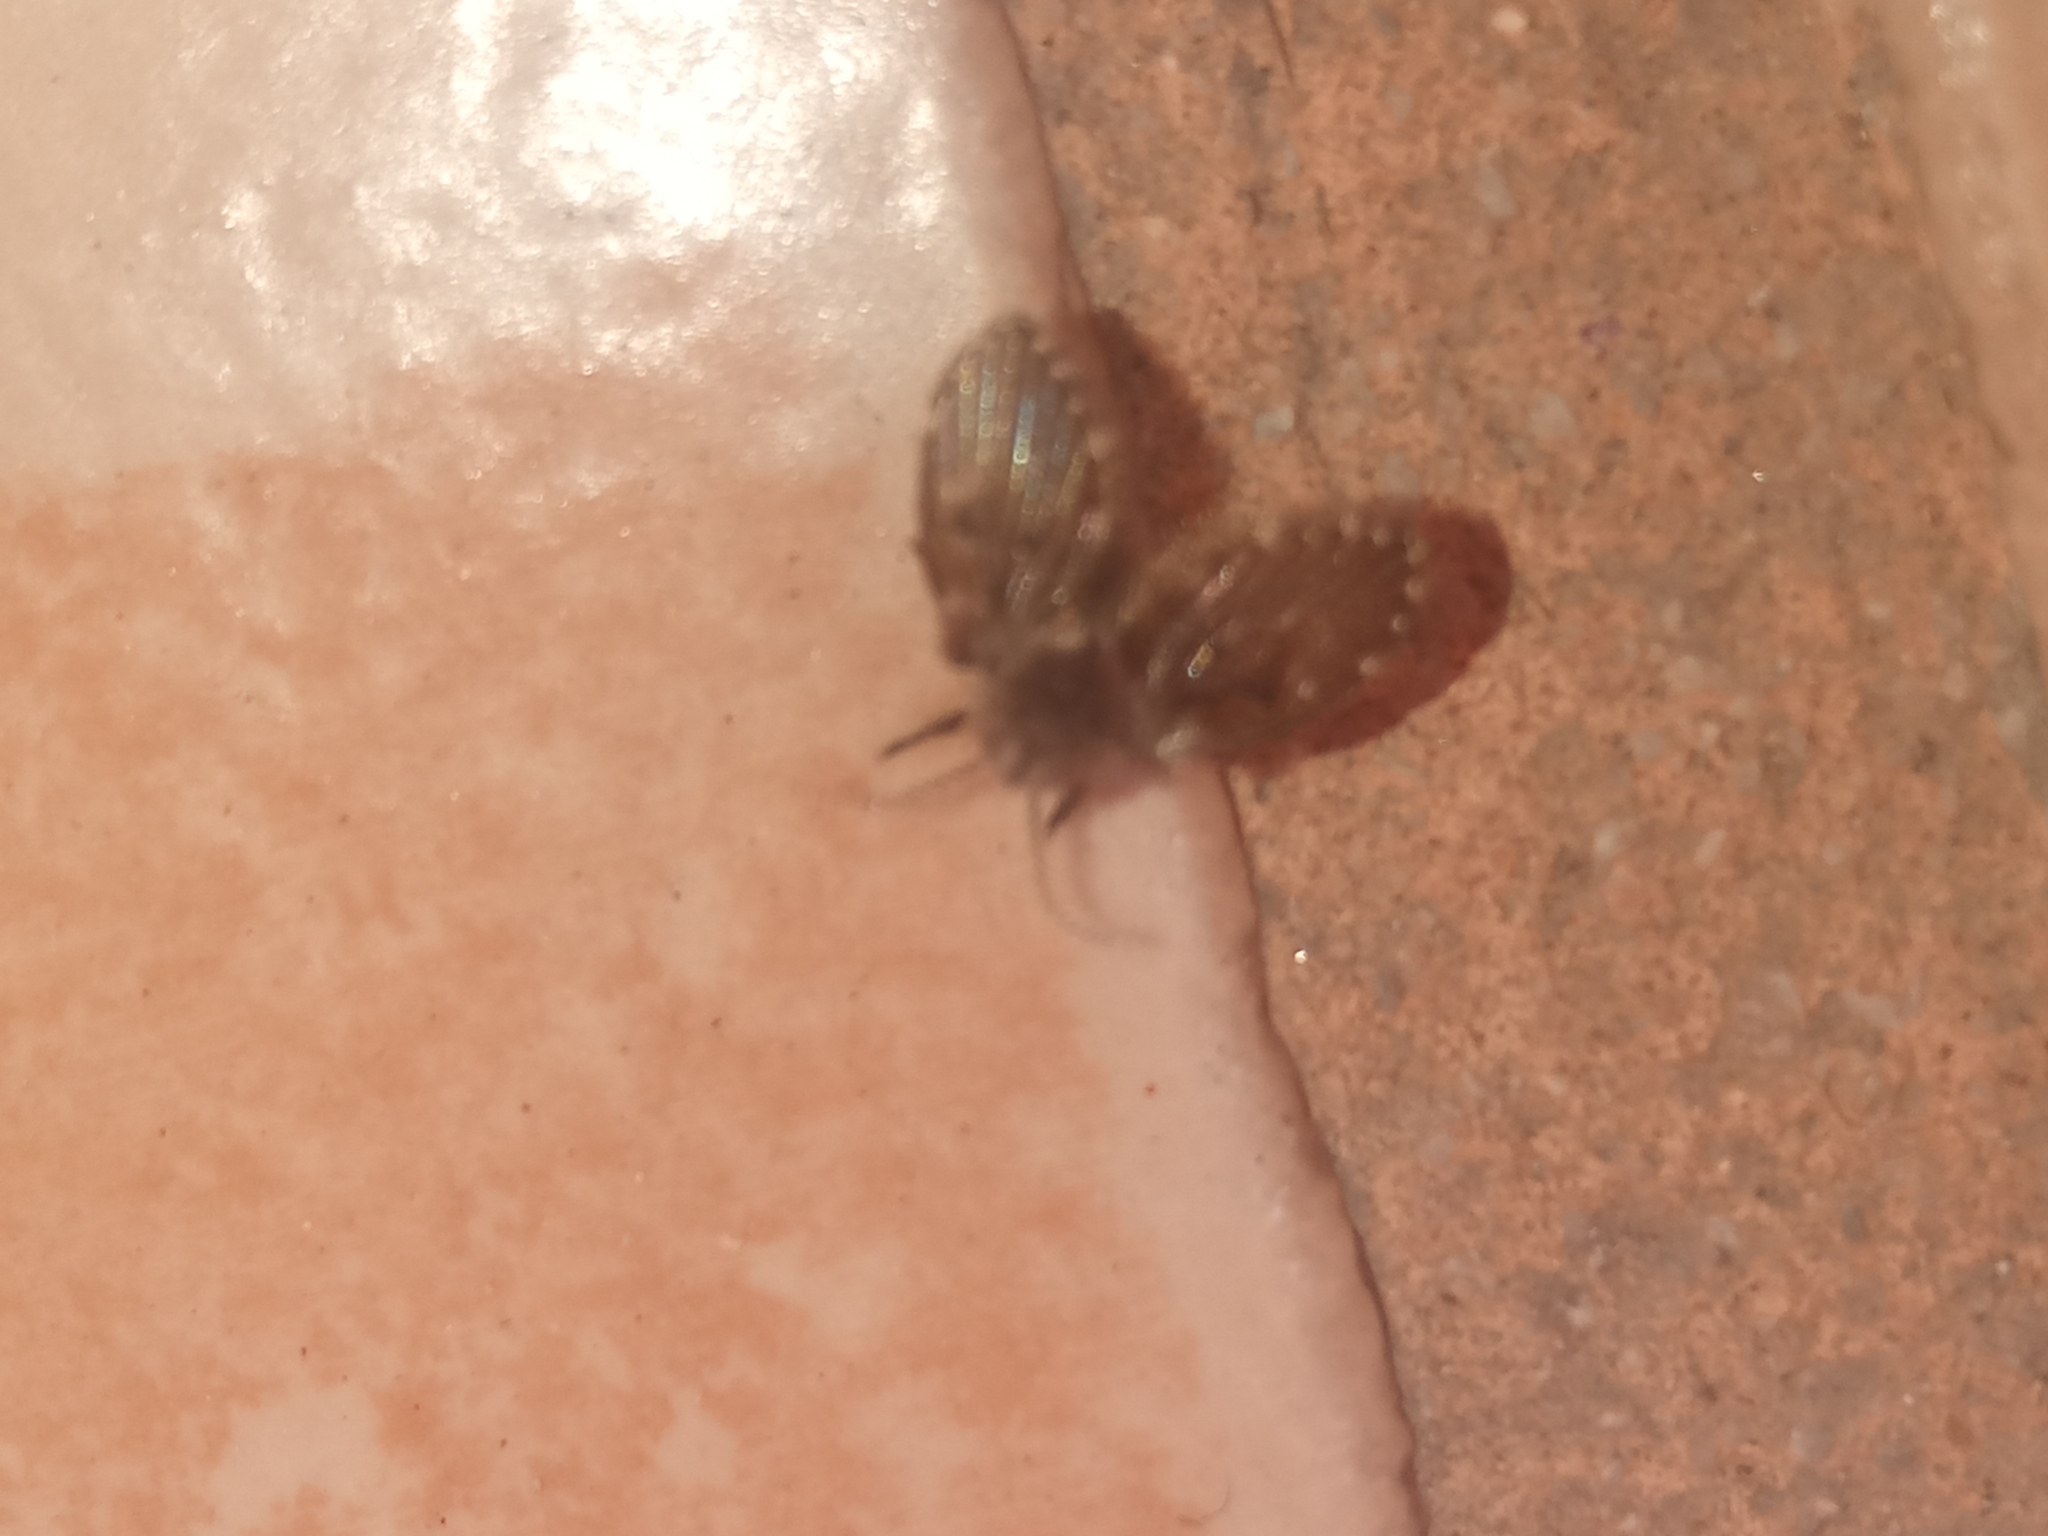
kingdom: Animalia
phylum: Arthropoda
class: Insecta
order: Diptera
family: Psychodidae
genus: Clogmia
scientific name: Clogmia albipunctatus
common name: White-spotted moth fly
